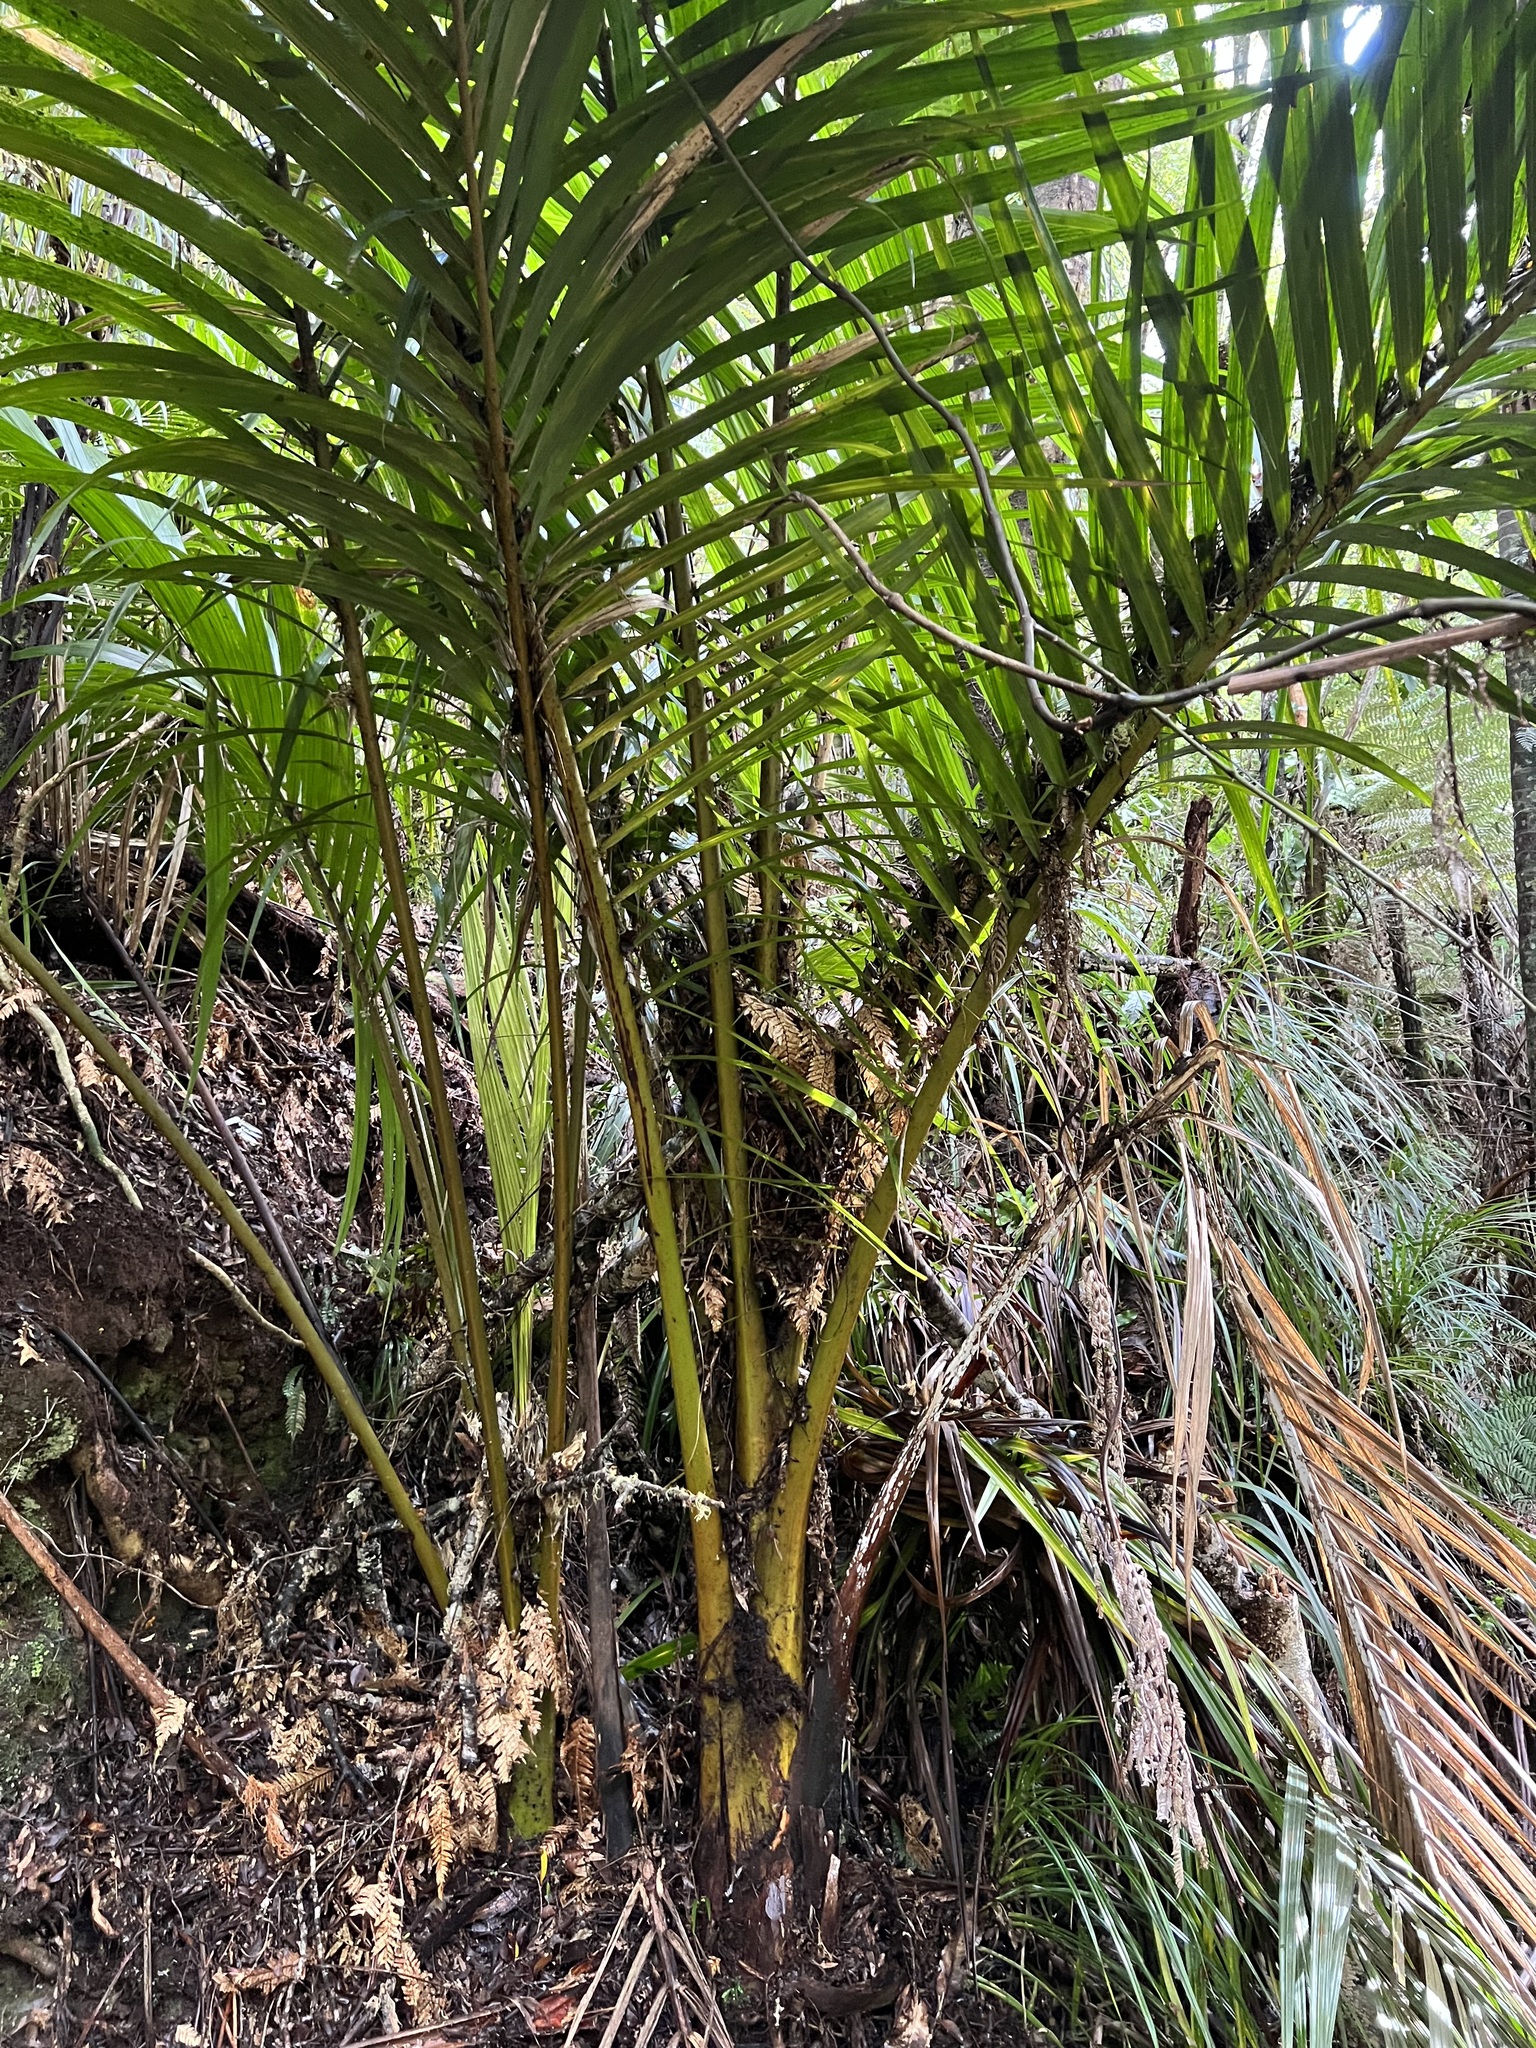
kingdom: Plantae
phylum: Tracheophyta
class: Liliopsida
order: Arecales
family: Arecaceae
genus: Rhopalostylis
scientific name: Rhopalostylis sapida
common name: Feather-duster palm
